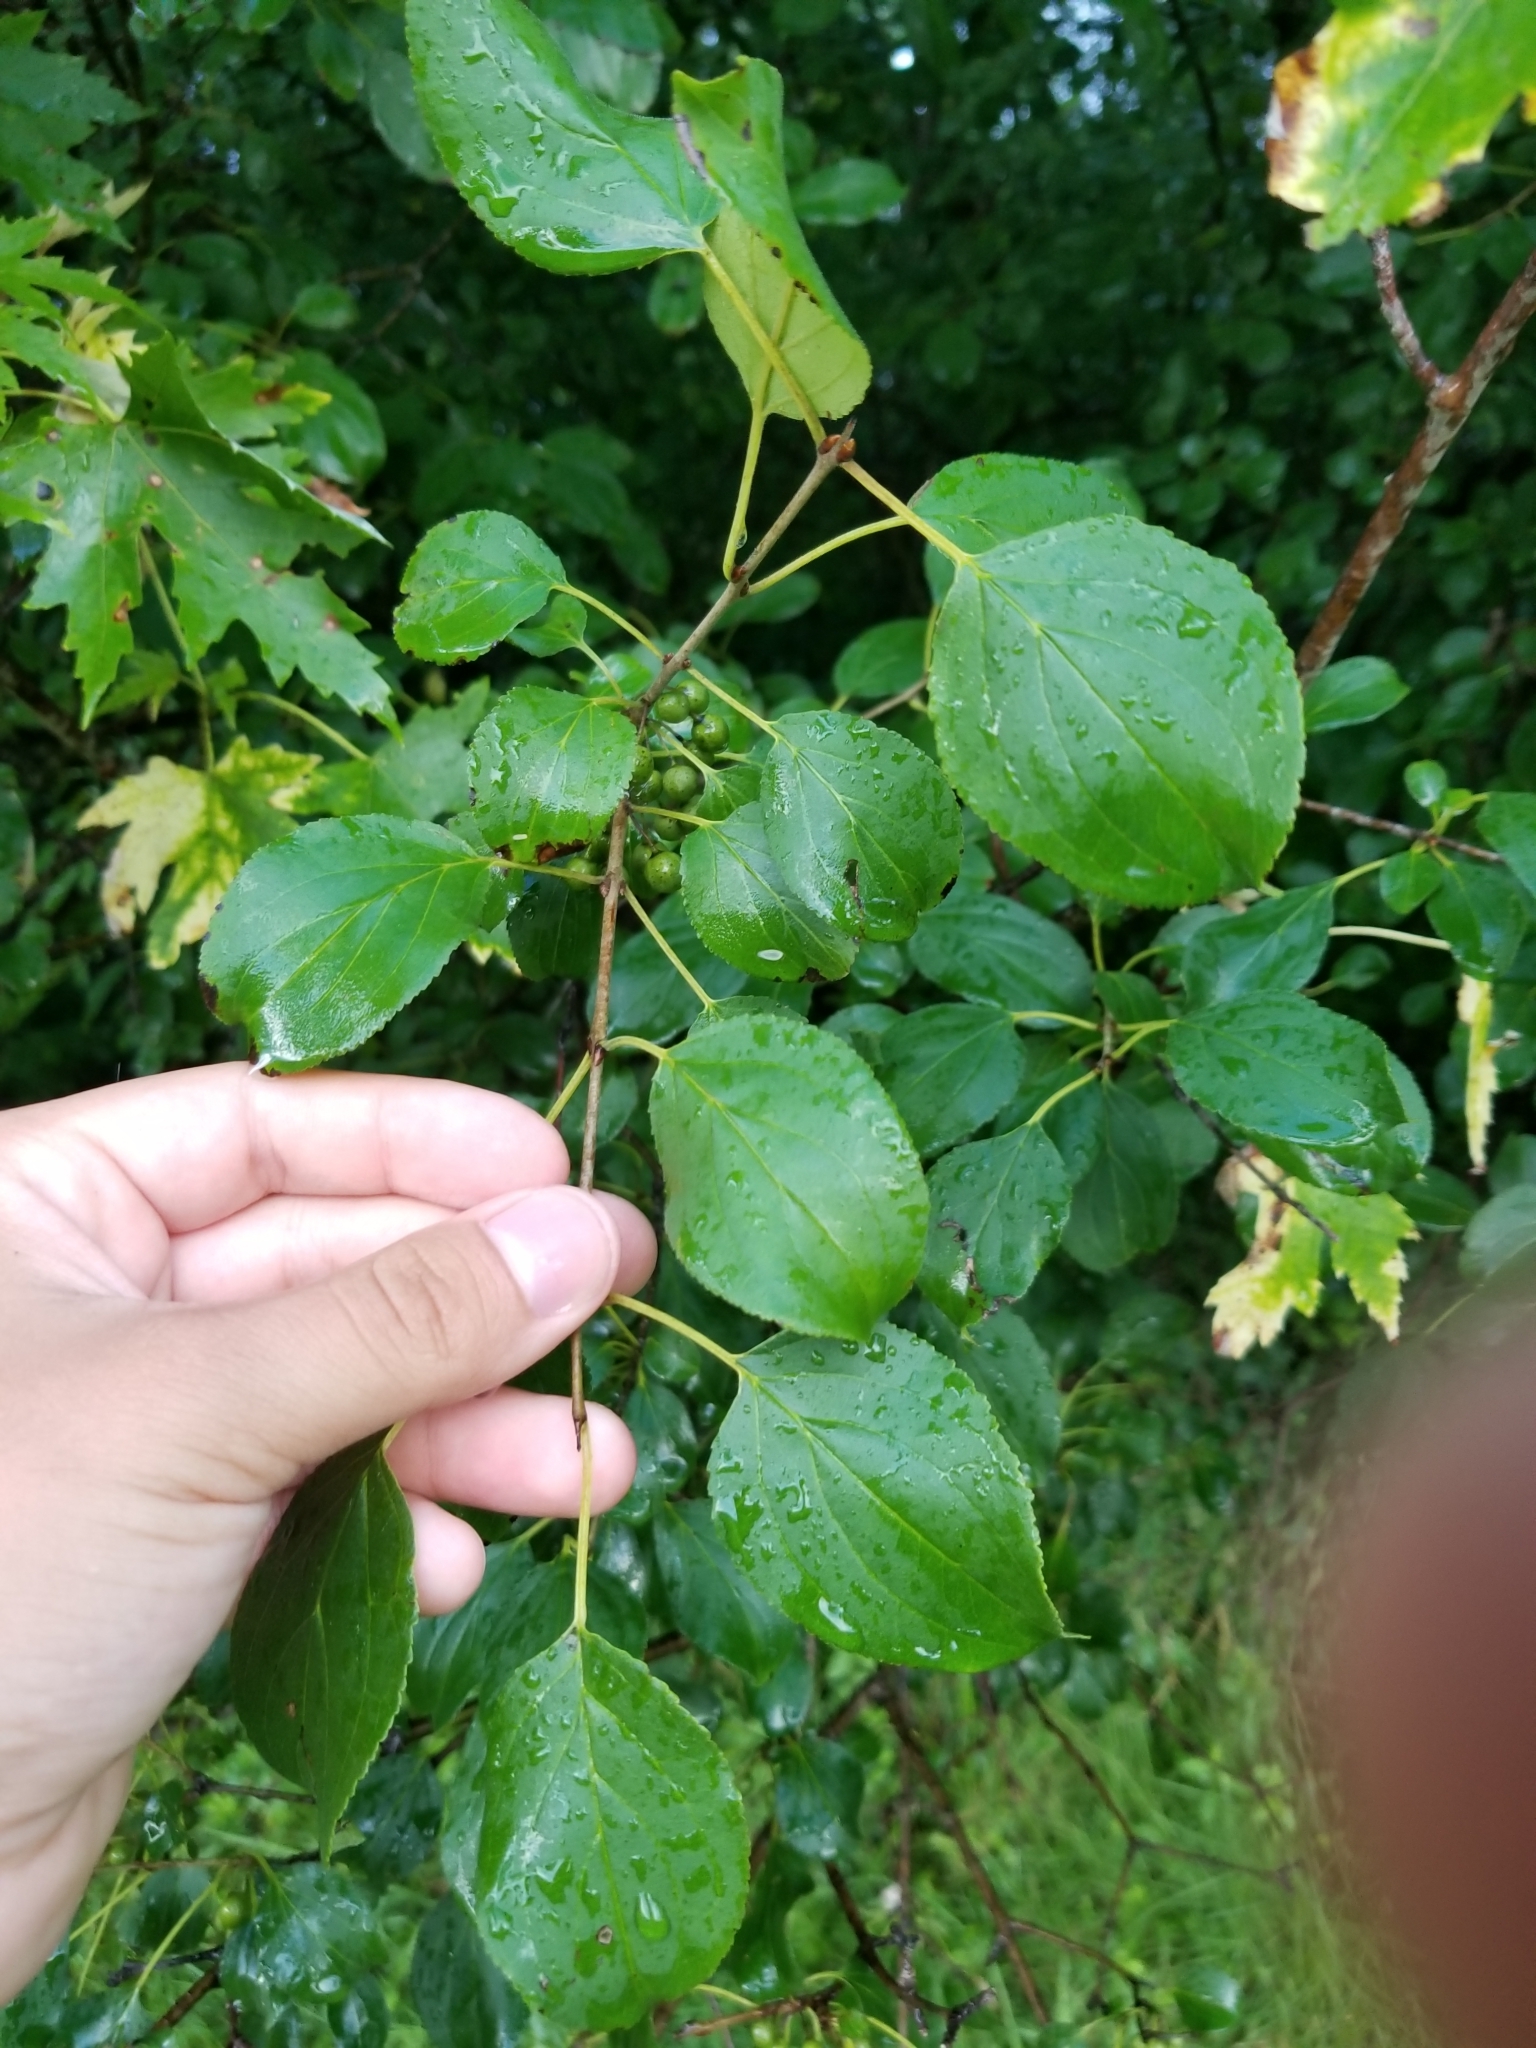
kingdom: Plantae
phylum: Tracheophyta
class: Magnoliopsida
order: Rosales
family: Rhamnaceae
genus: Rhamnus
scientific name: Rhamnus cathartica
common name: Common buckthorn
